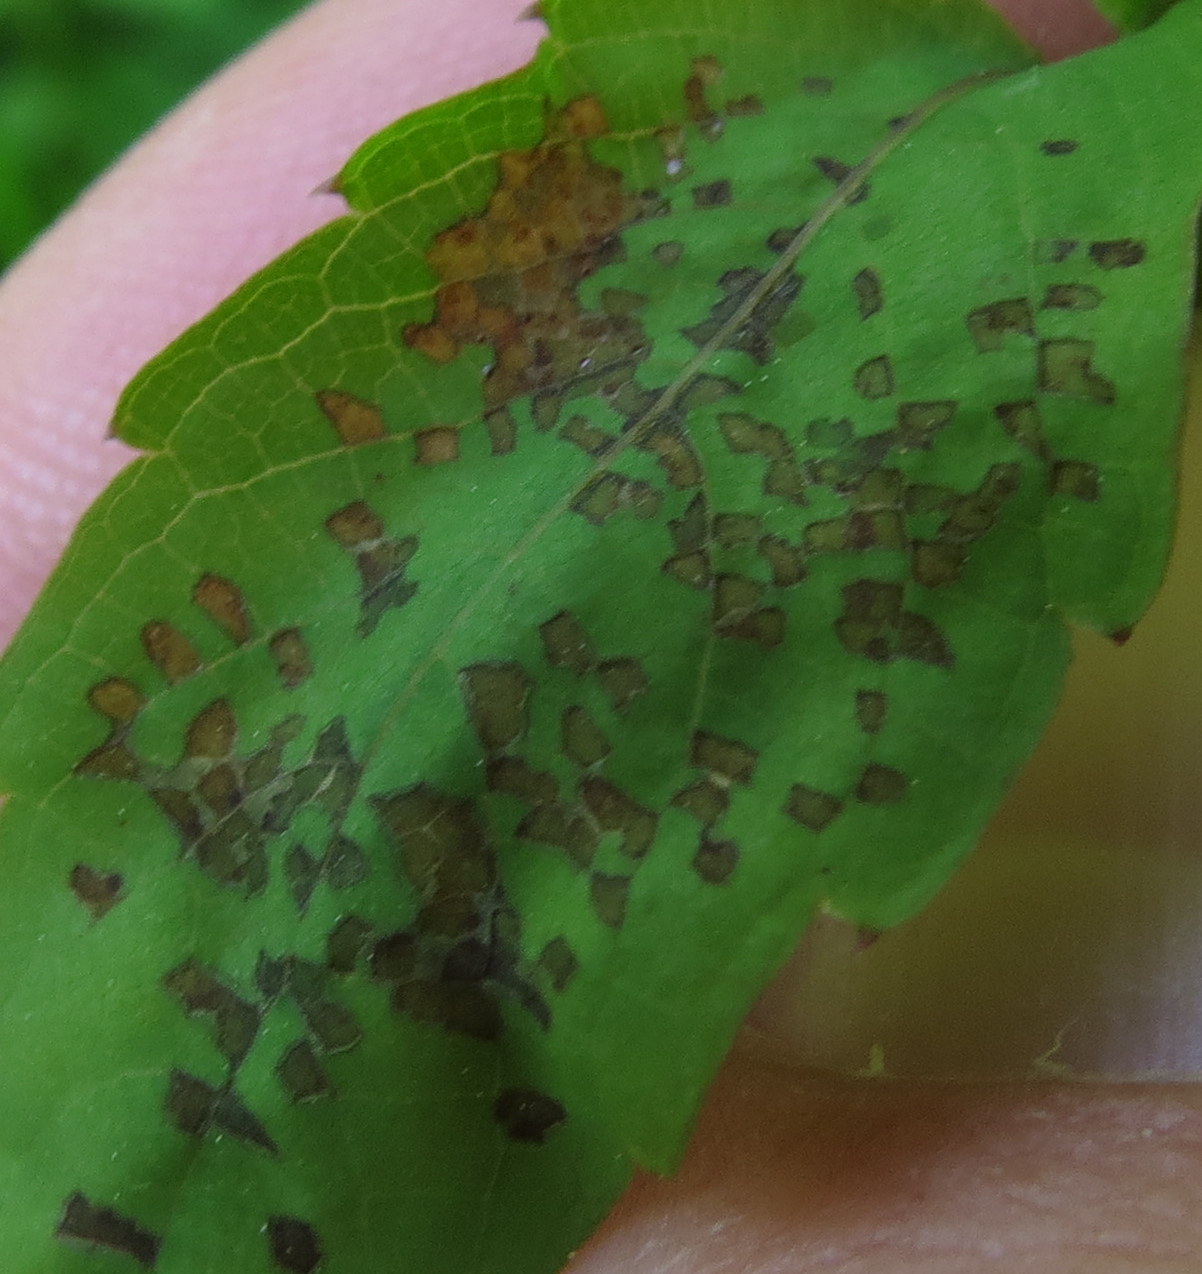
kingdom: Animalia
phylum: Arthropoda
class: Insecta
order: Hemiptera
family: Miridae
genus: Poecilocapsus
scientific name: Poecilocapsus lineatus
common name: Four-lined plant bug
